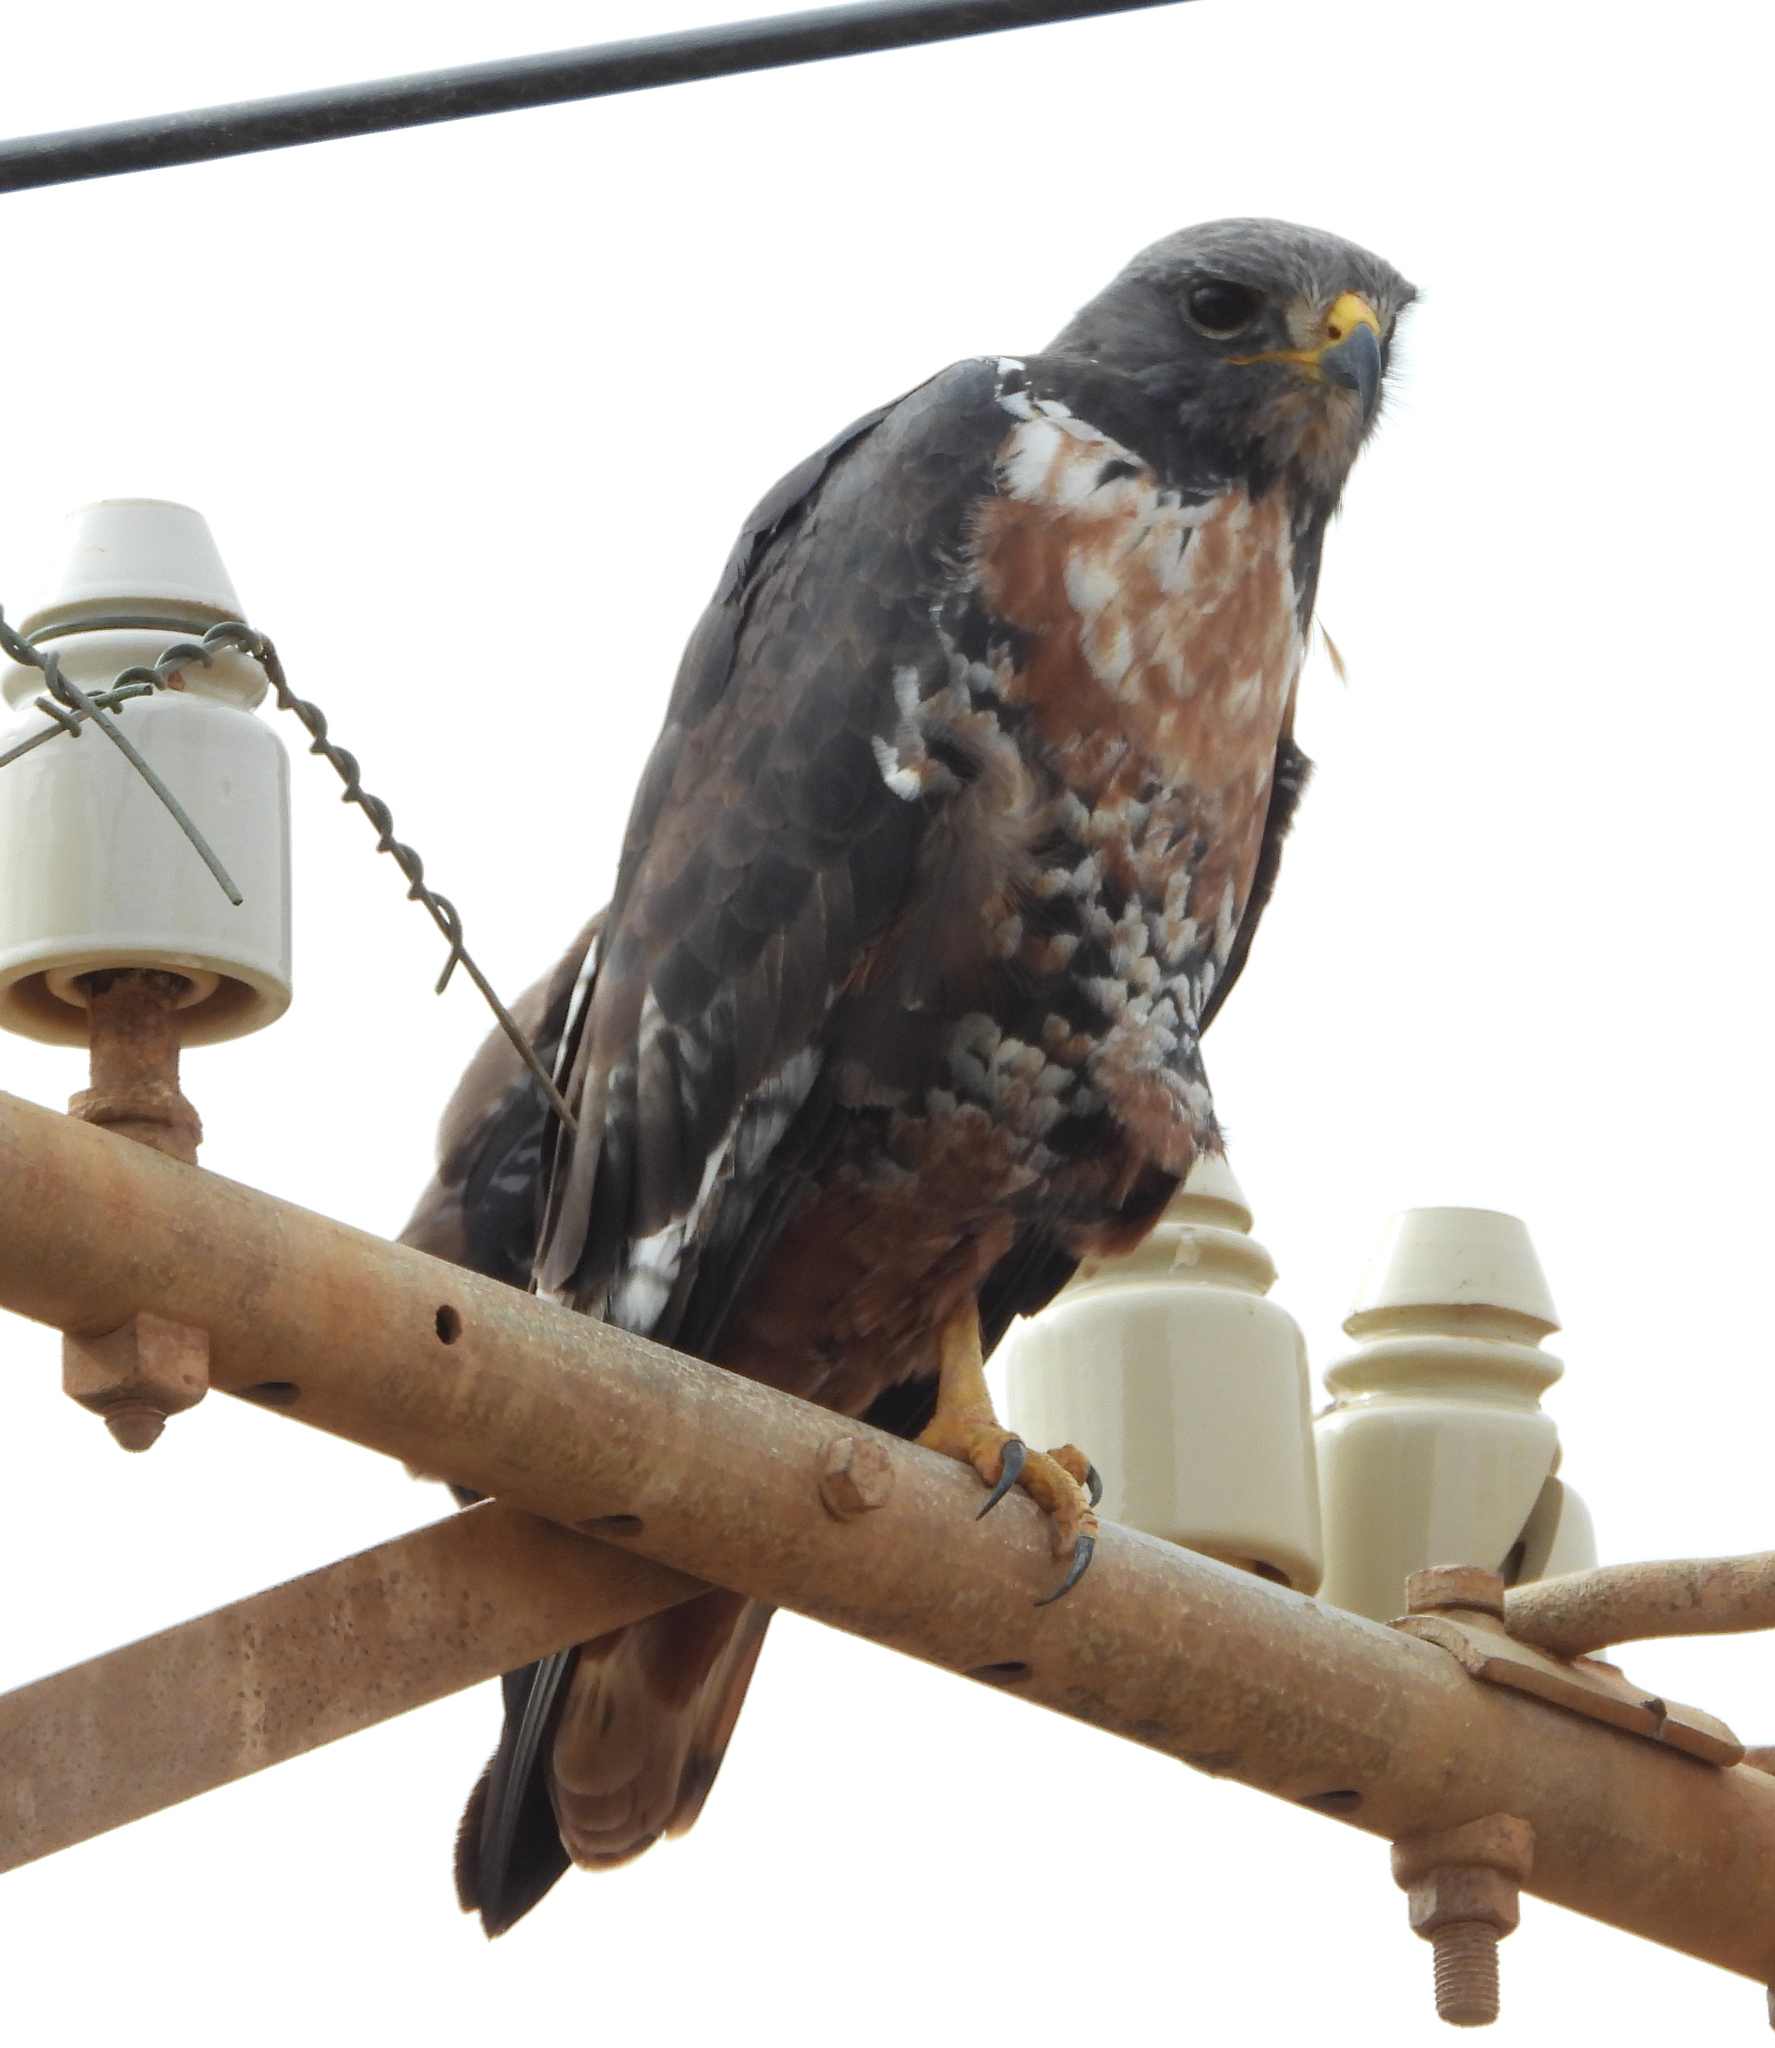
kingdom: Animalia
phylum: Chordata
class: Aves
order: Accipitriformes
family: Accipitridae
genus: Buteo
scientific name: Buteo rufofuscus
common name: Jackal buzzard
